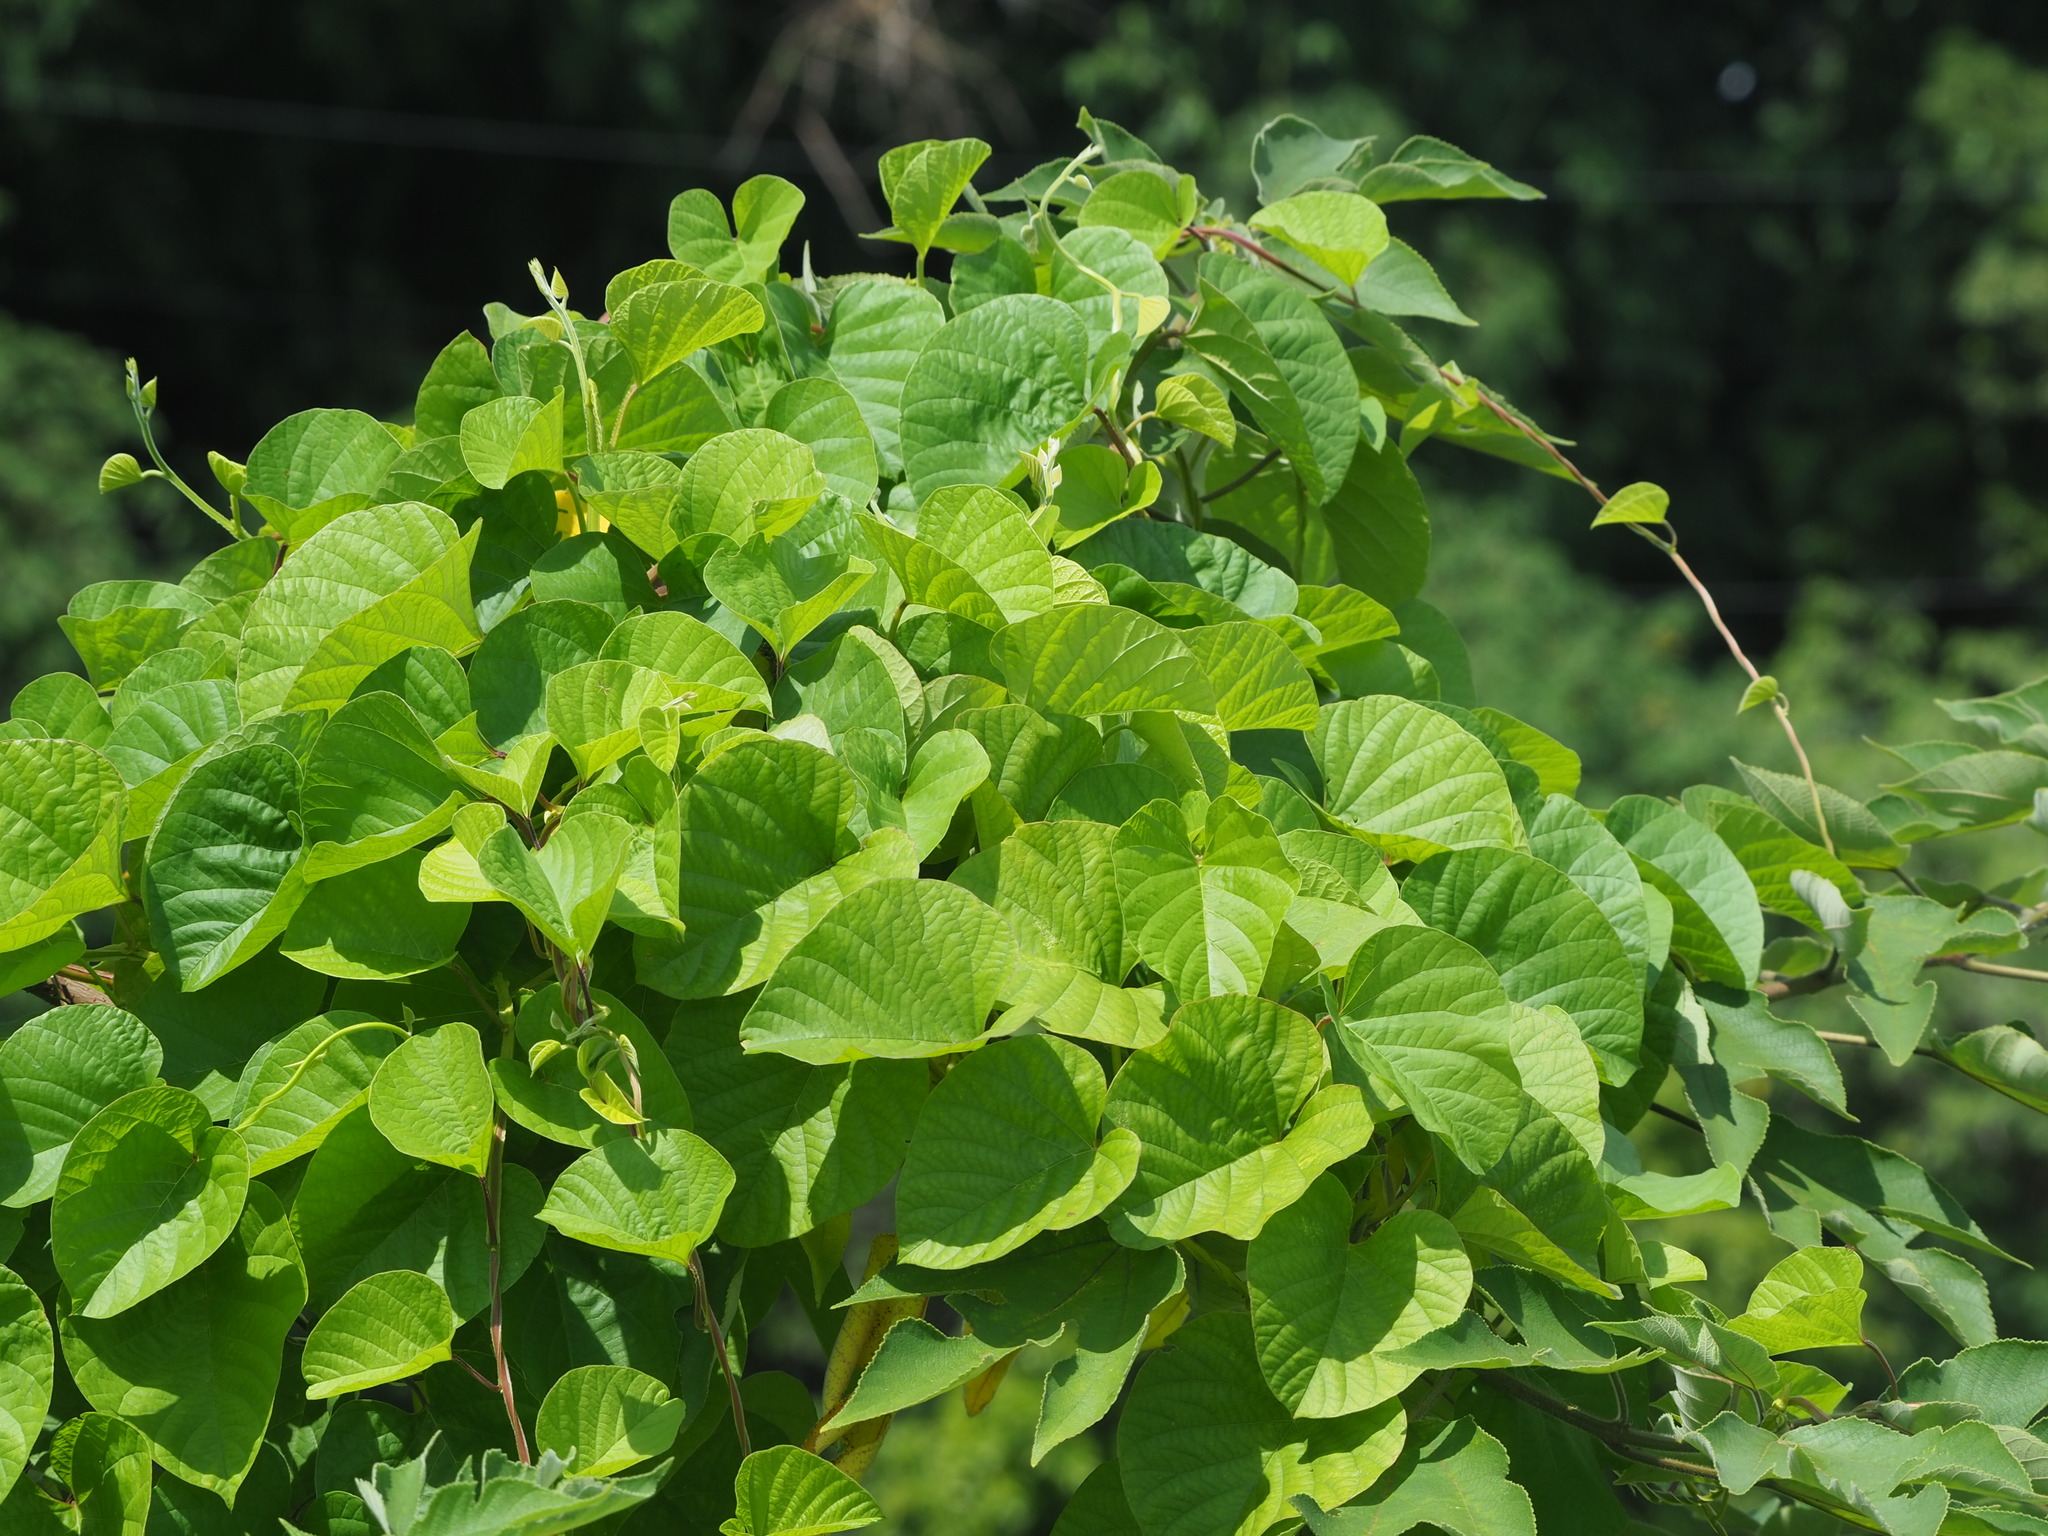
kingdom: Plantae
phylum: Tracheophyta
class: Magnoliopsida
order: Solanales
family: Convolvulaceae
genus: Operculina
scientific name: Operculina turpethum
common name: Transparent wood-rose
